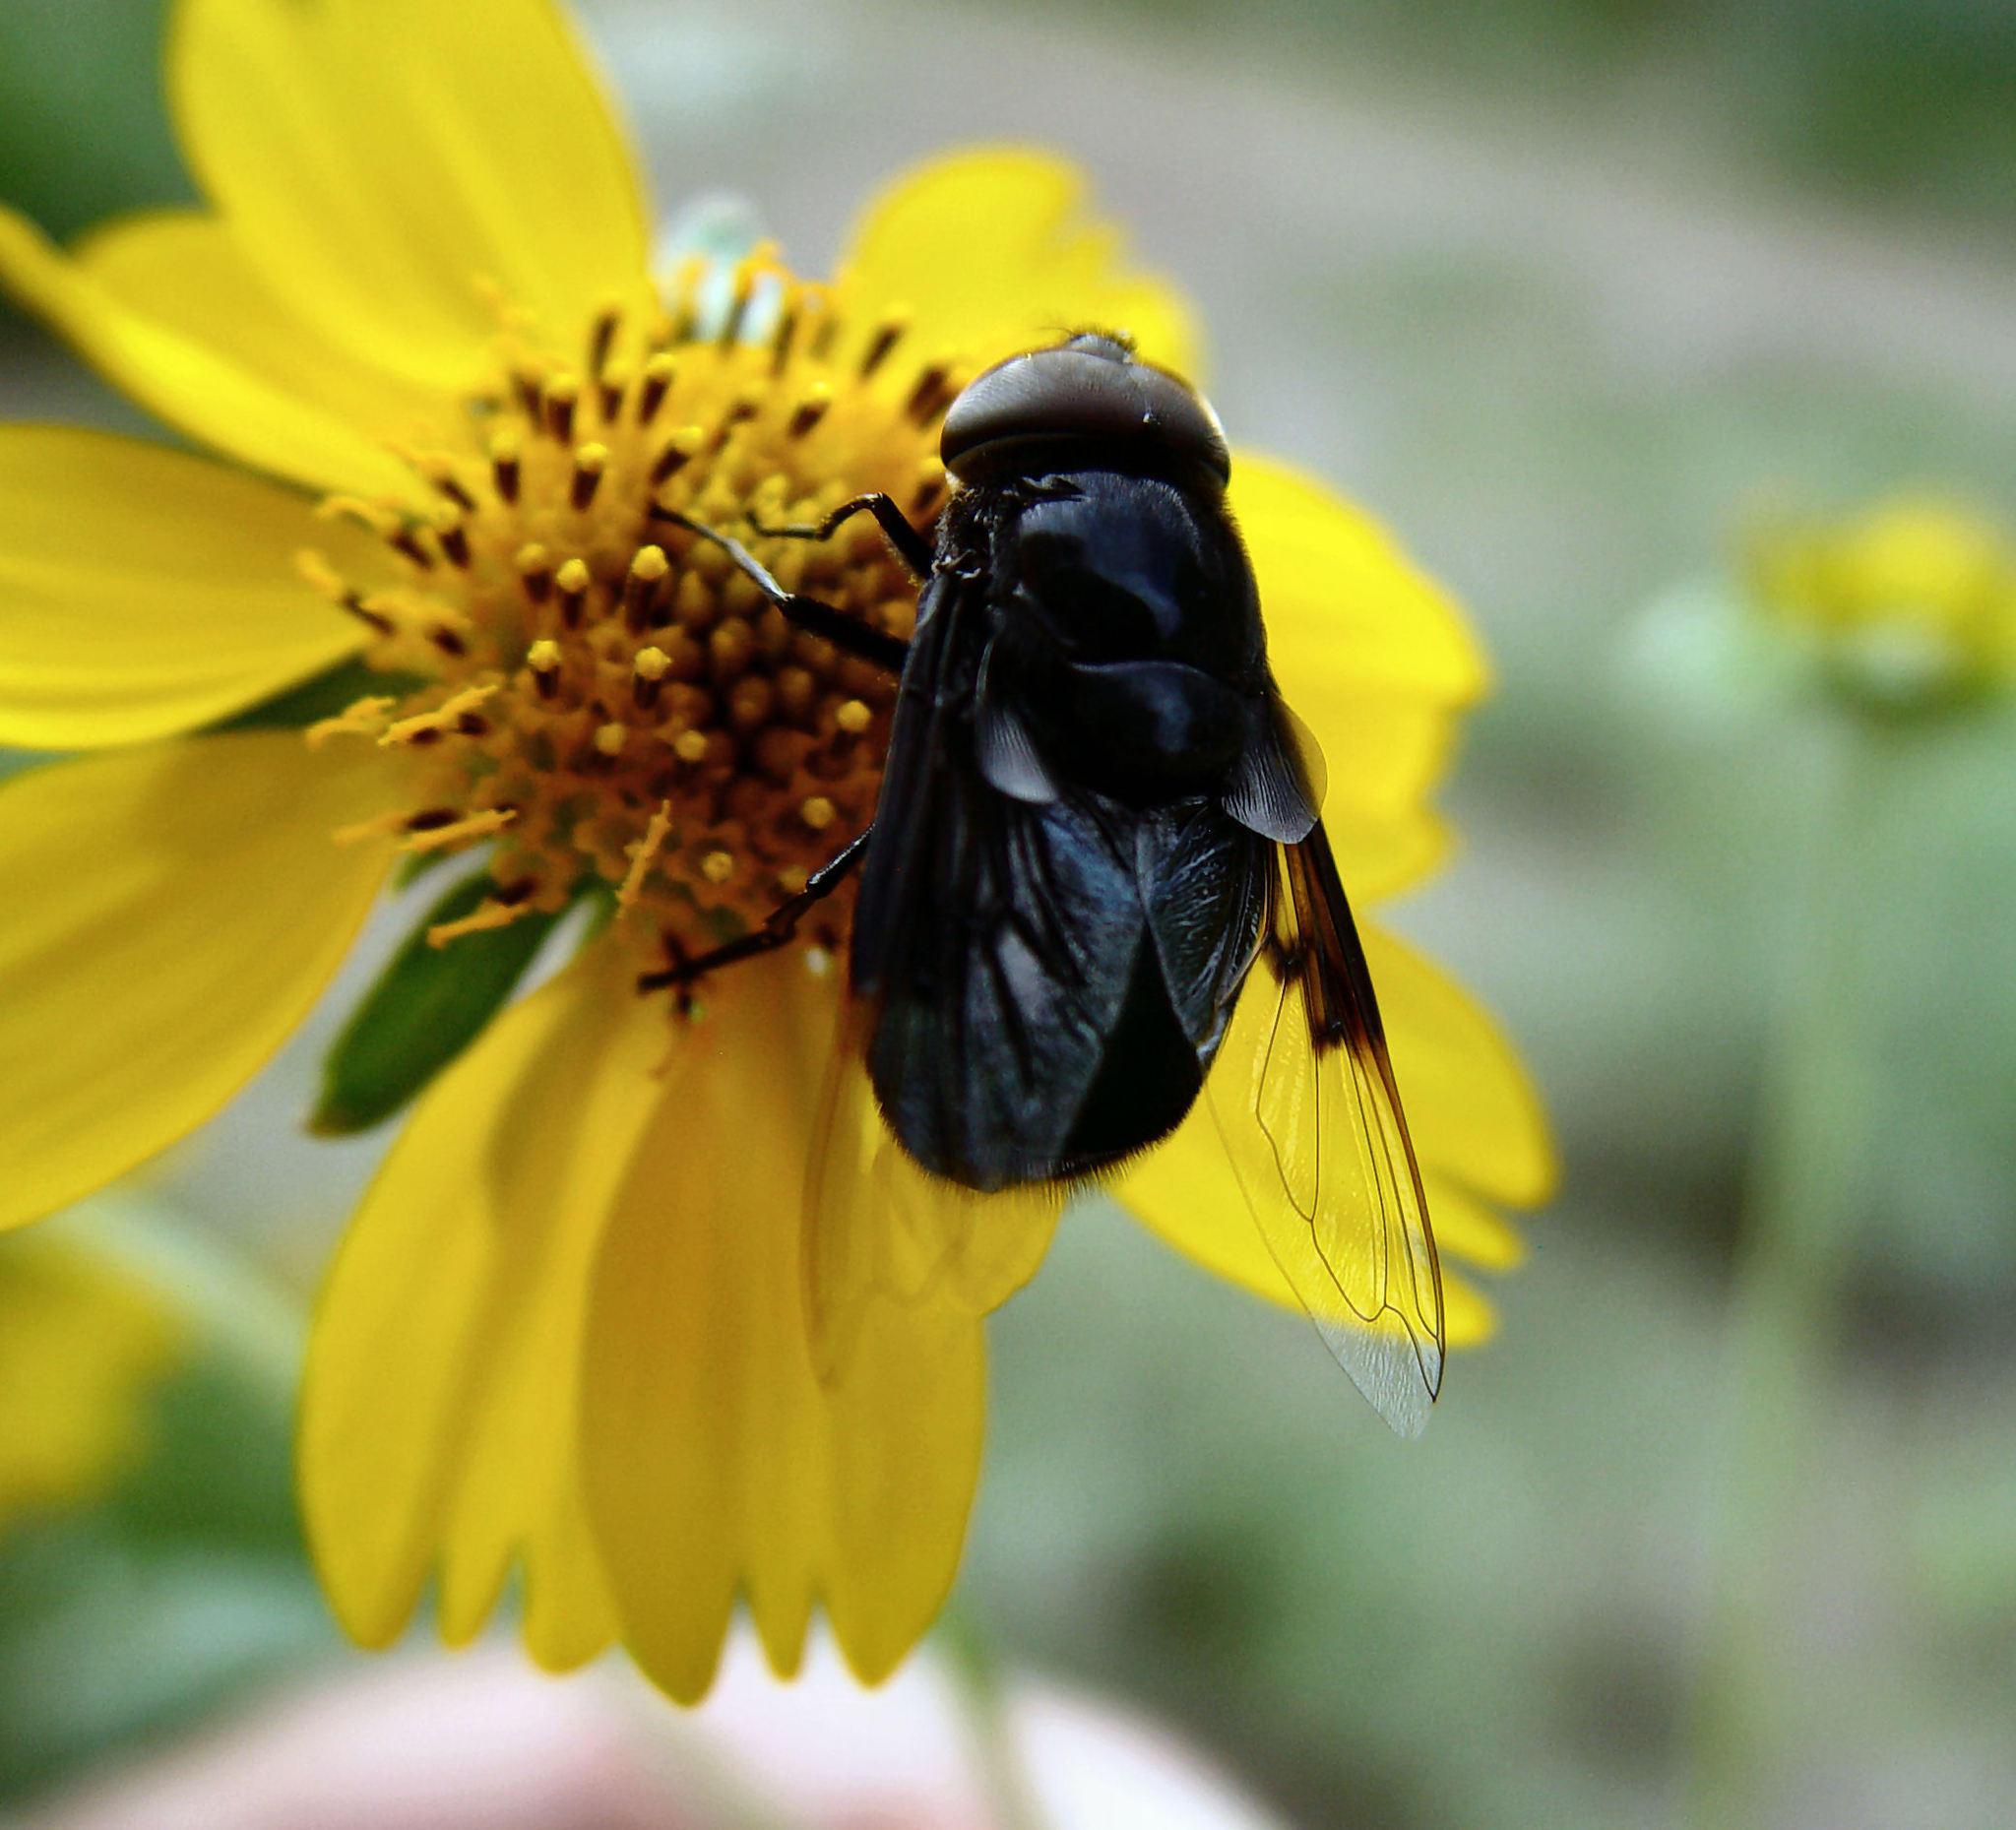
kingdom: Animalia
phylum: Arthropoda
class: Insecta
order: Diptera
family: Syrphidae
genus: Copestylum
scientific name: Copestylum mexicanum
